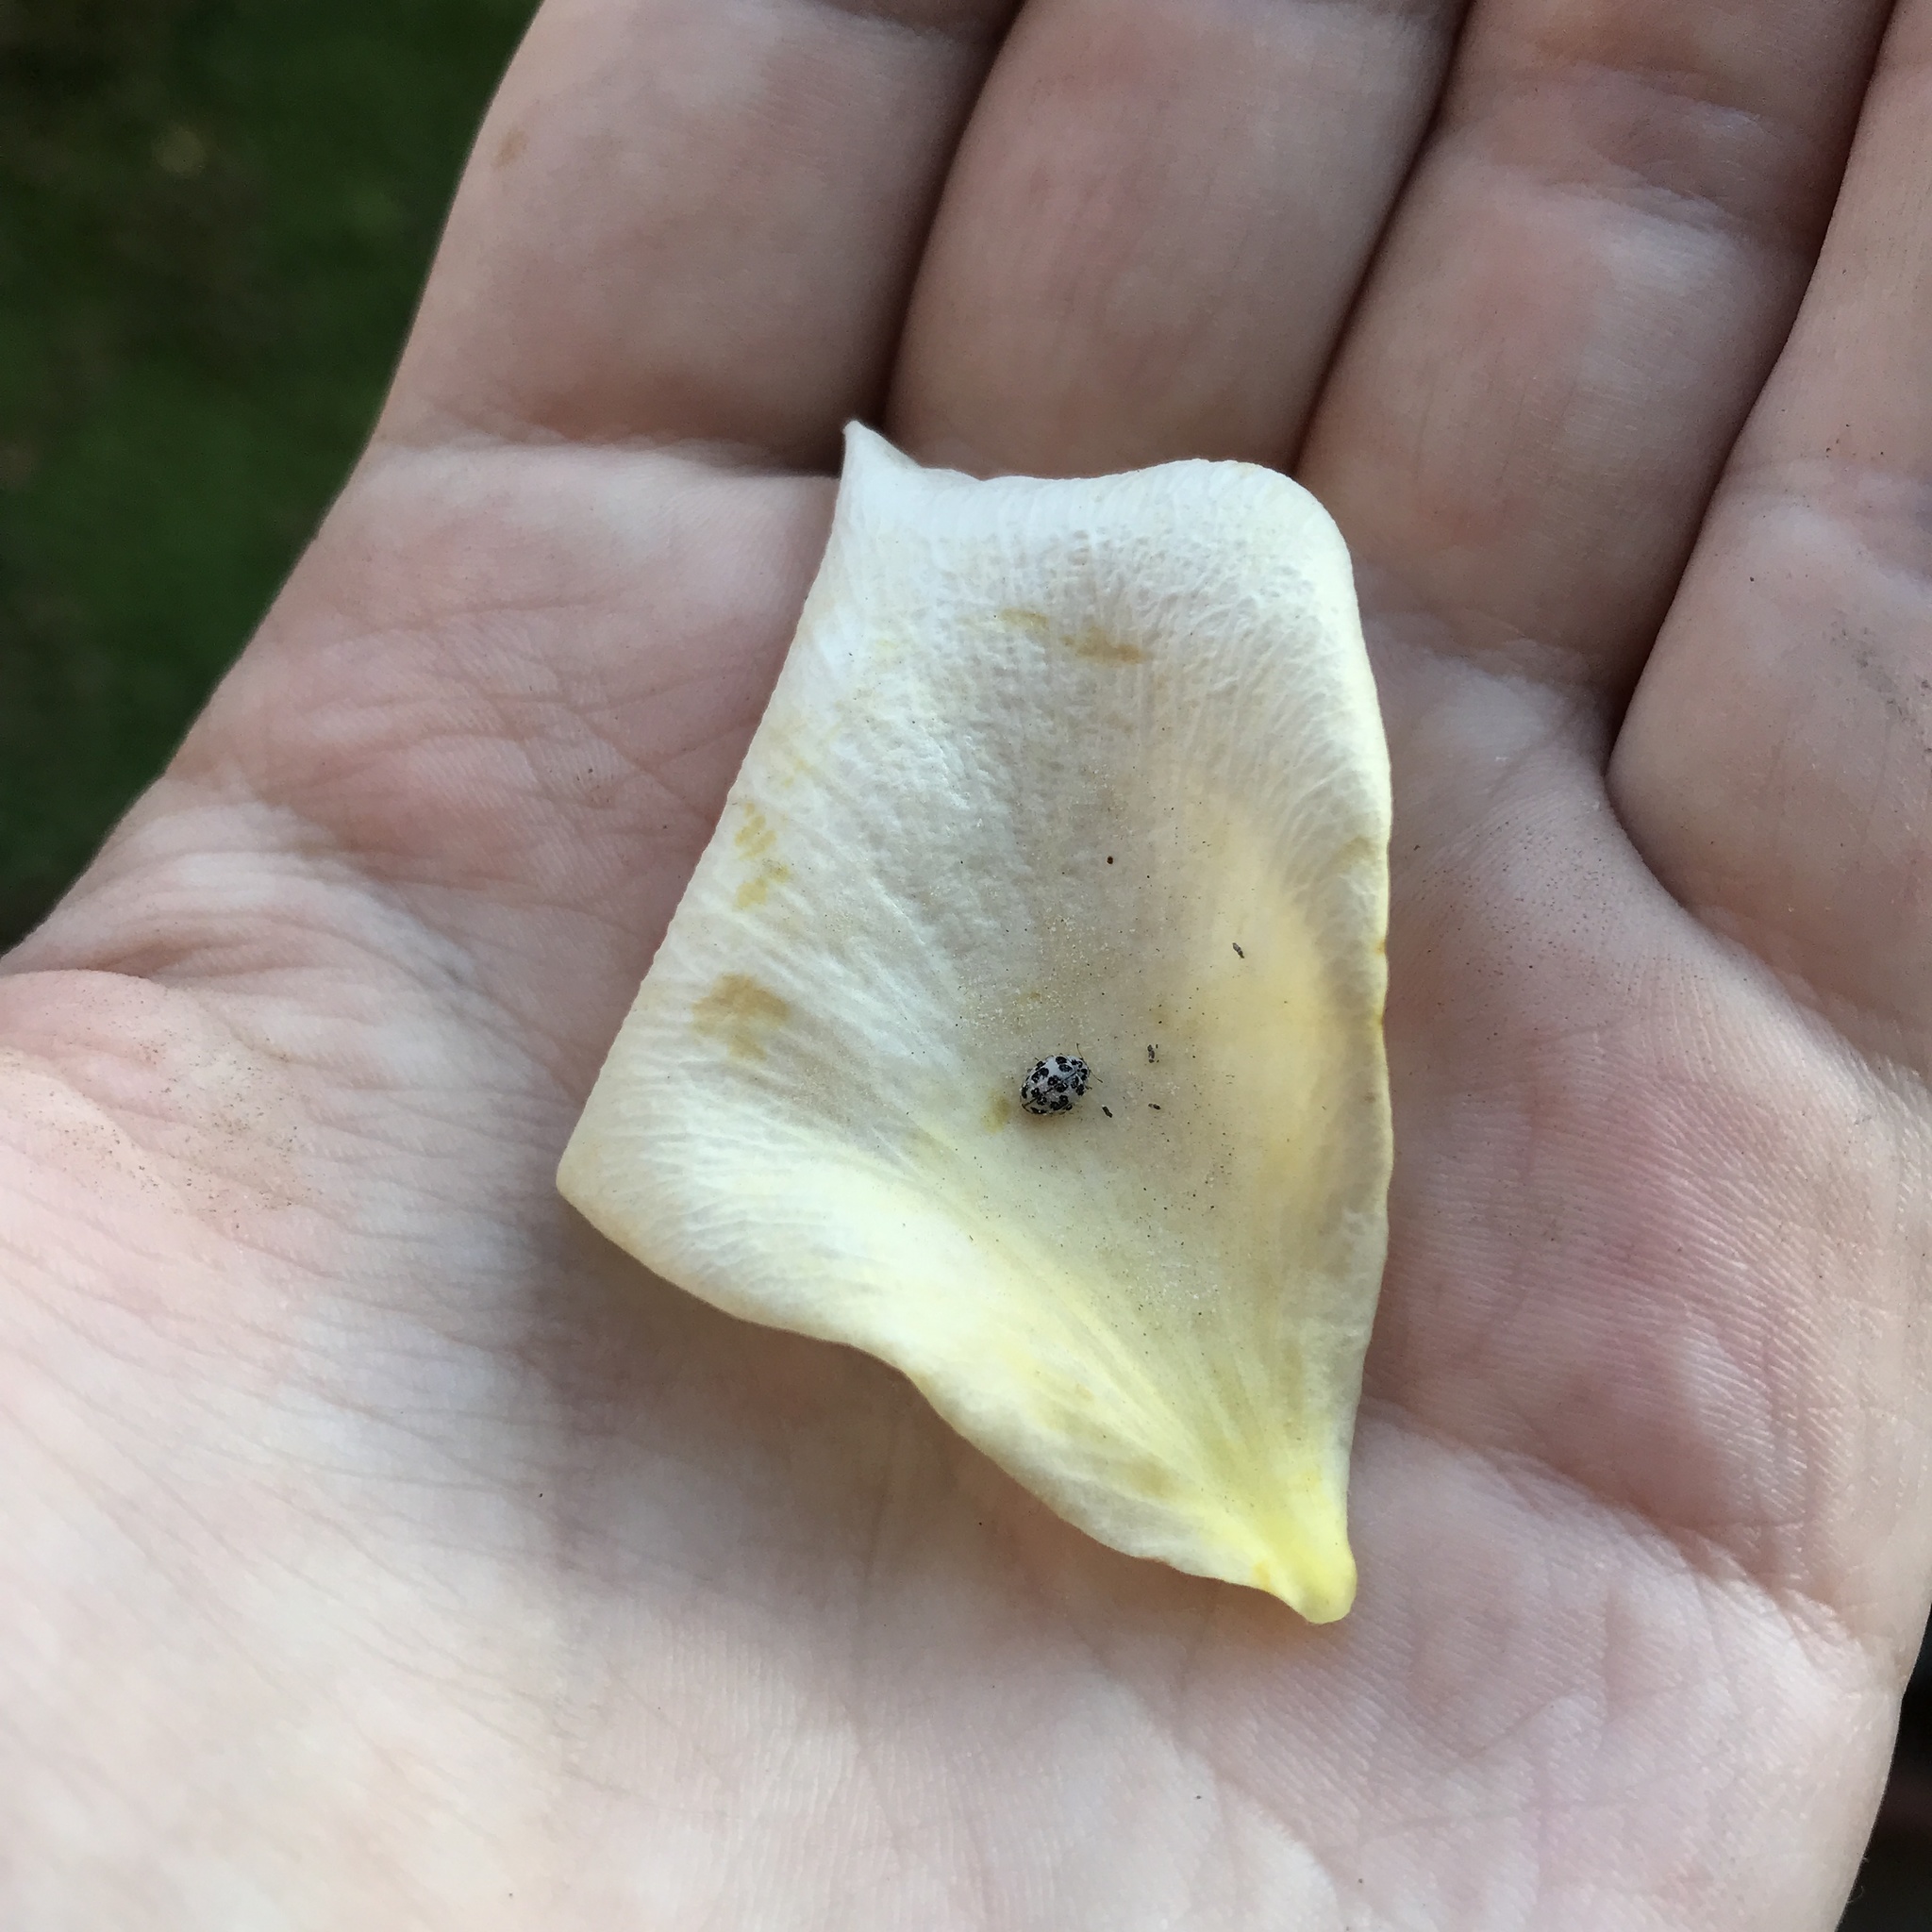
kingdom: Animalia
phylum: Arthropoda
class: Insecta
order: Coleoptera
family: Coccinellidae
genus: Psyllobora
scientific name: Psyllobora
